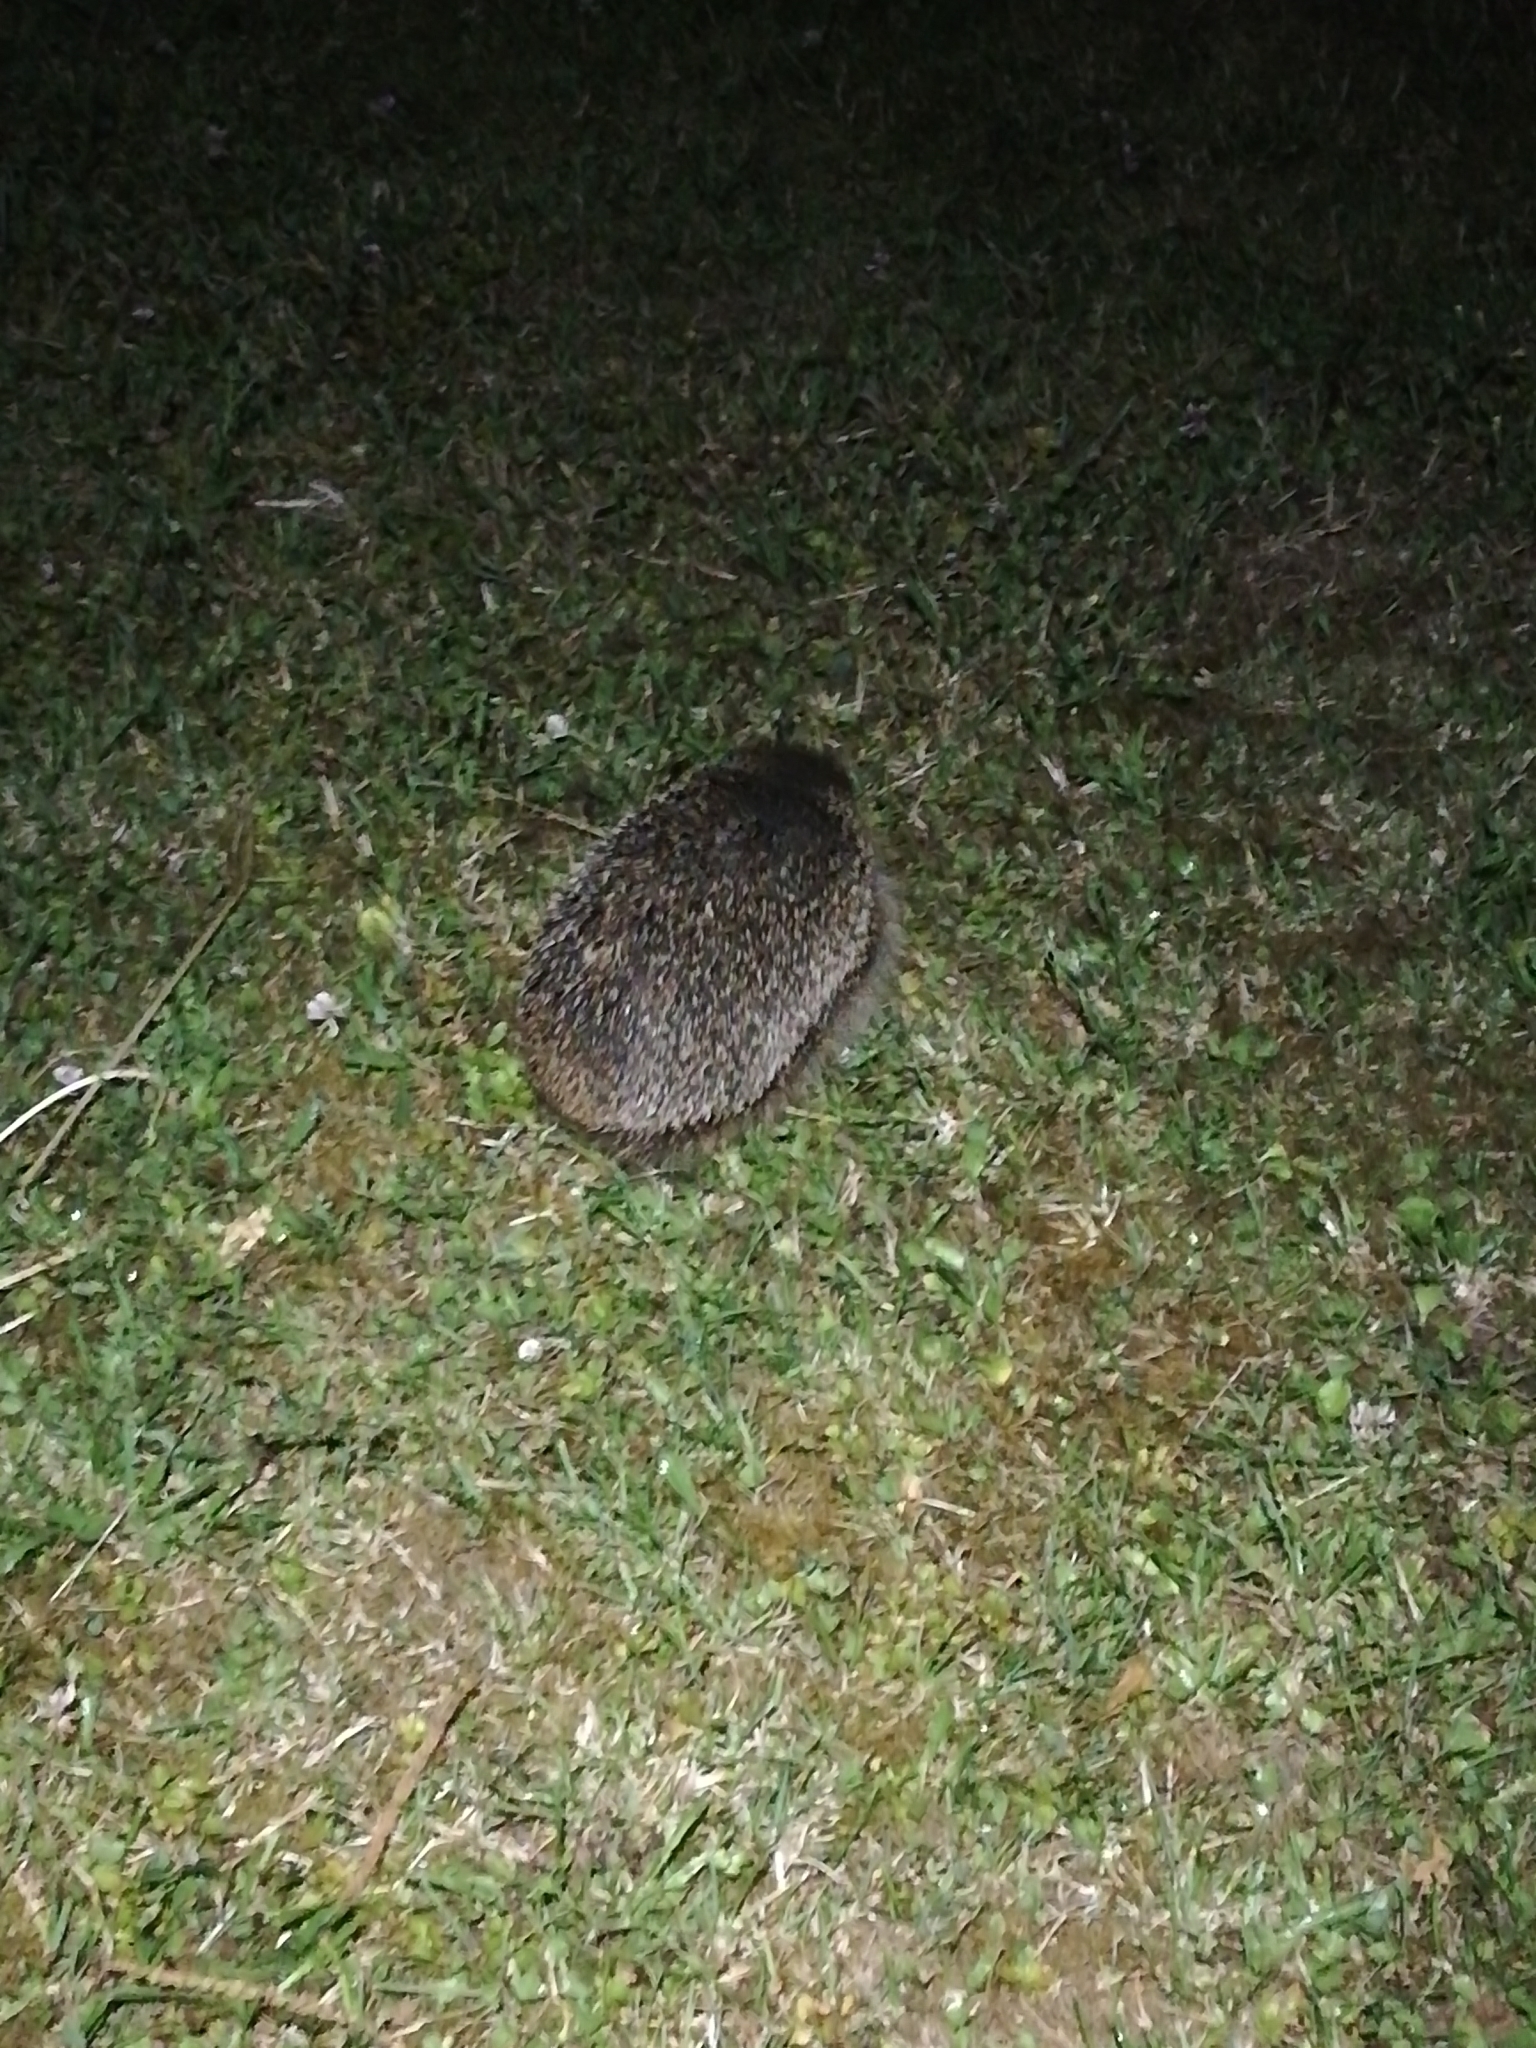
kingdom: Animalia
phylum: Chordata
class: Mammalia
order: Erinaceomorpha
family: Erinaceidae
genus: Erinaceus
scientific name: Erinaceus europaeus
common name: West european hedgehog
